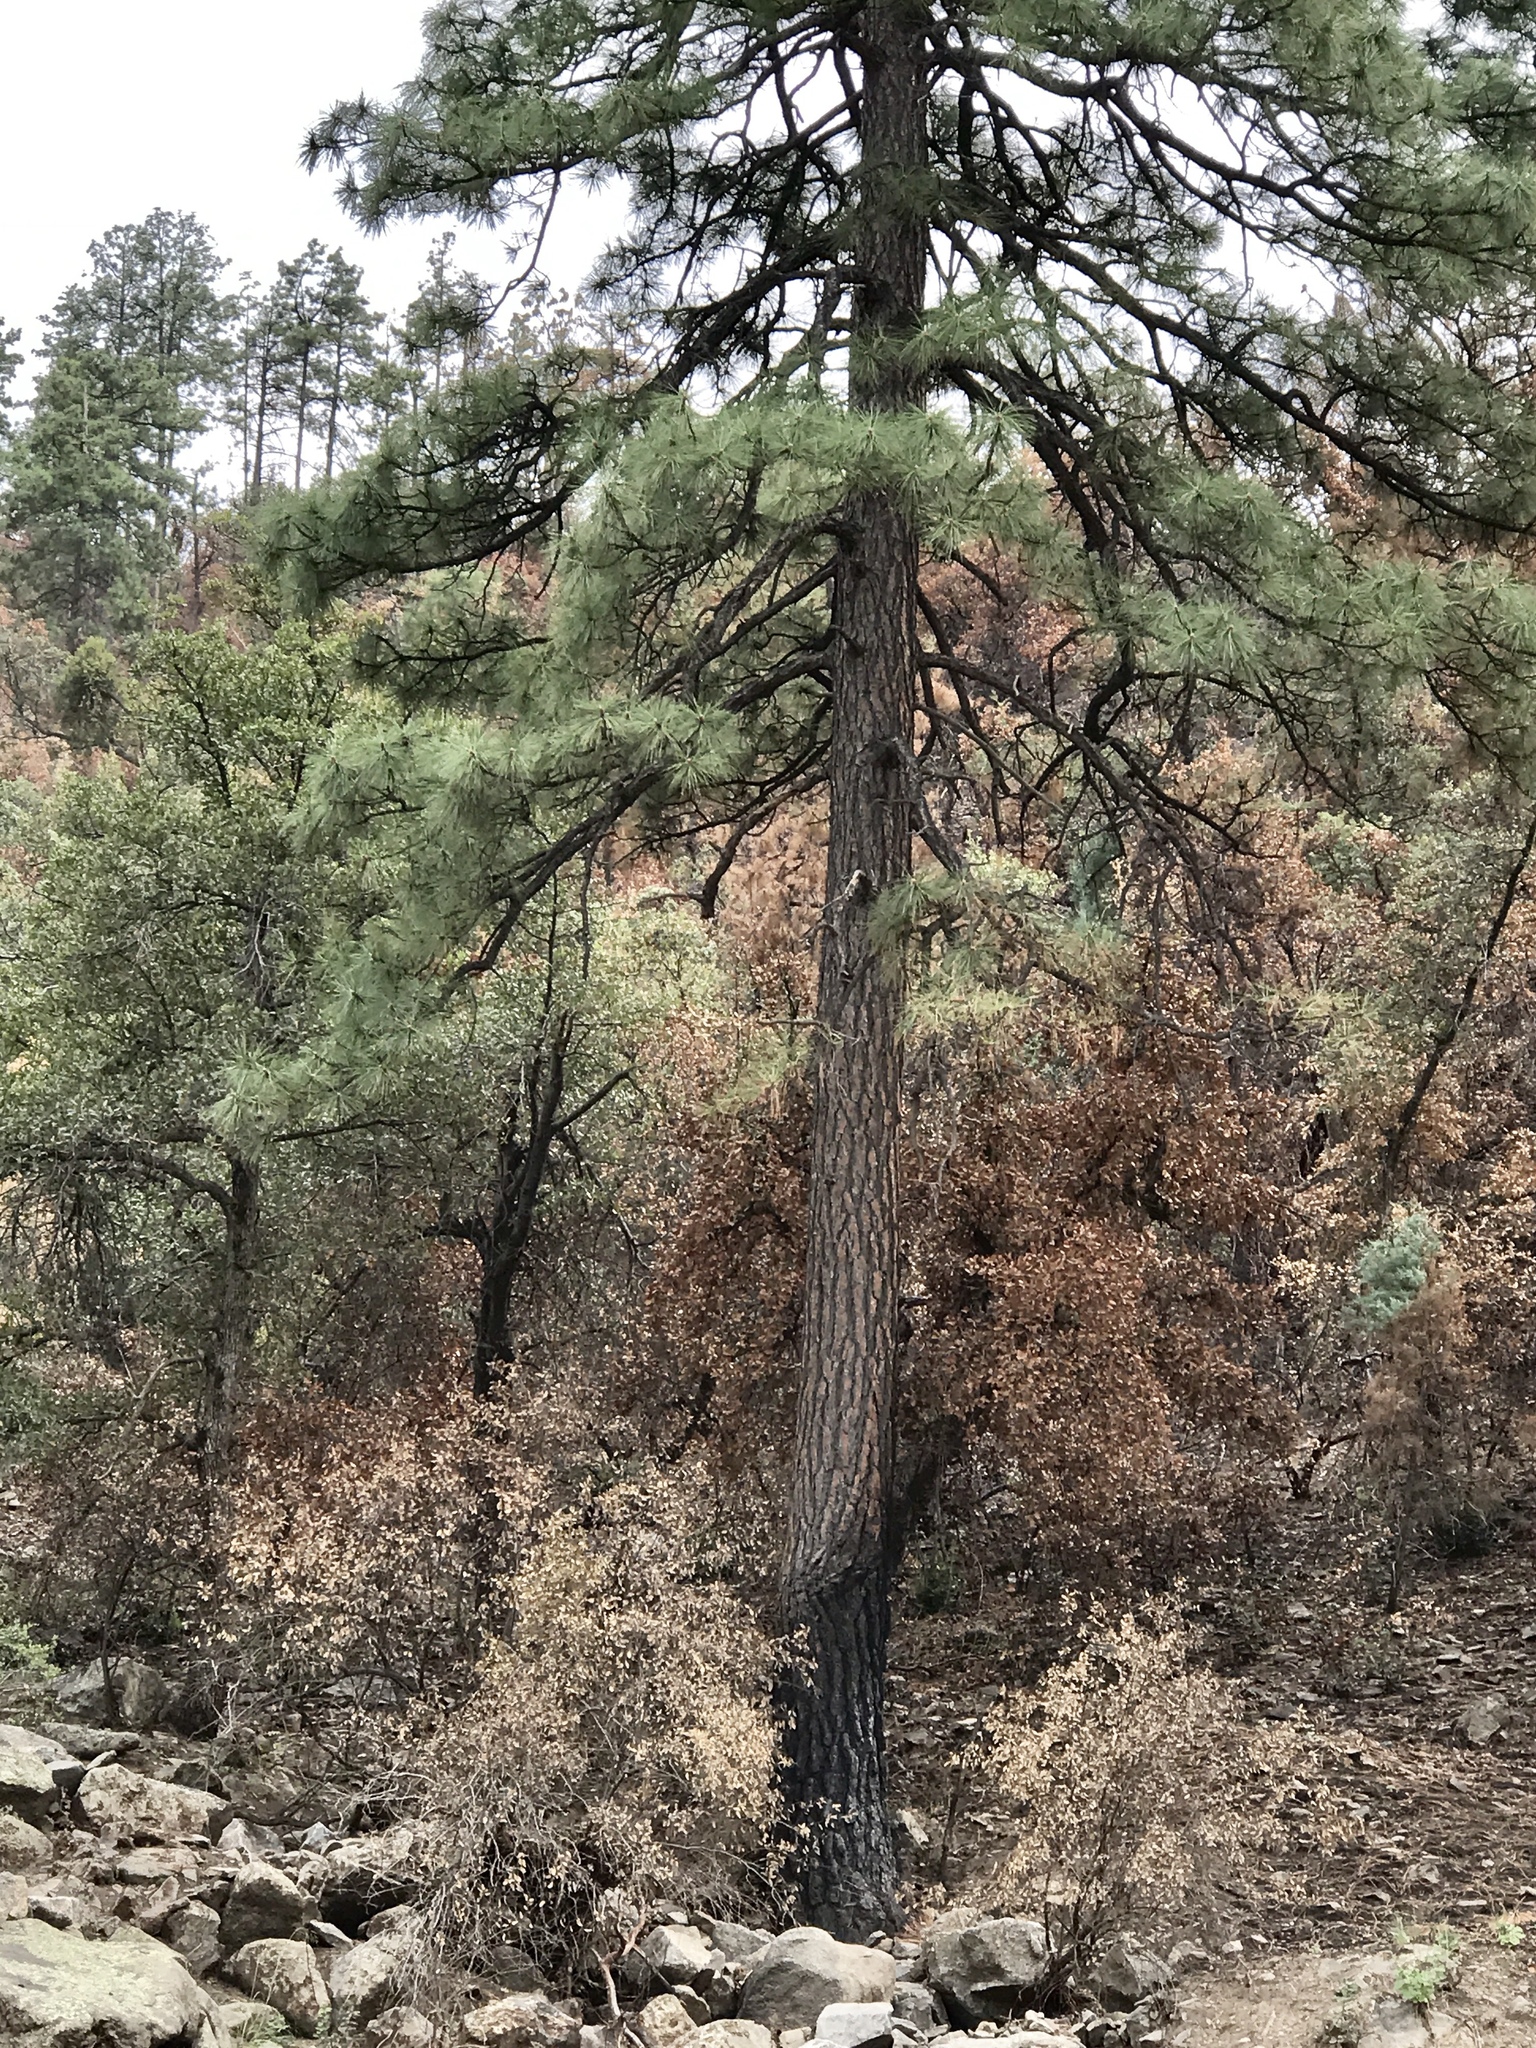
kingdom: Plantae
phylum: Tracheophyta
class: Pinopsida
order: Pinales
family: Pinaceae
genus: Pinus
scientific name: Pinus ponderosa
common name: Western yellow-pine
